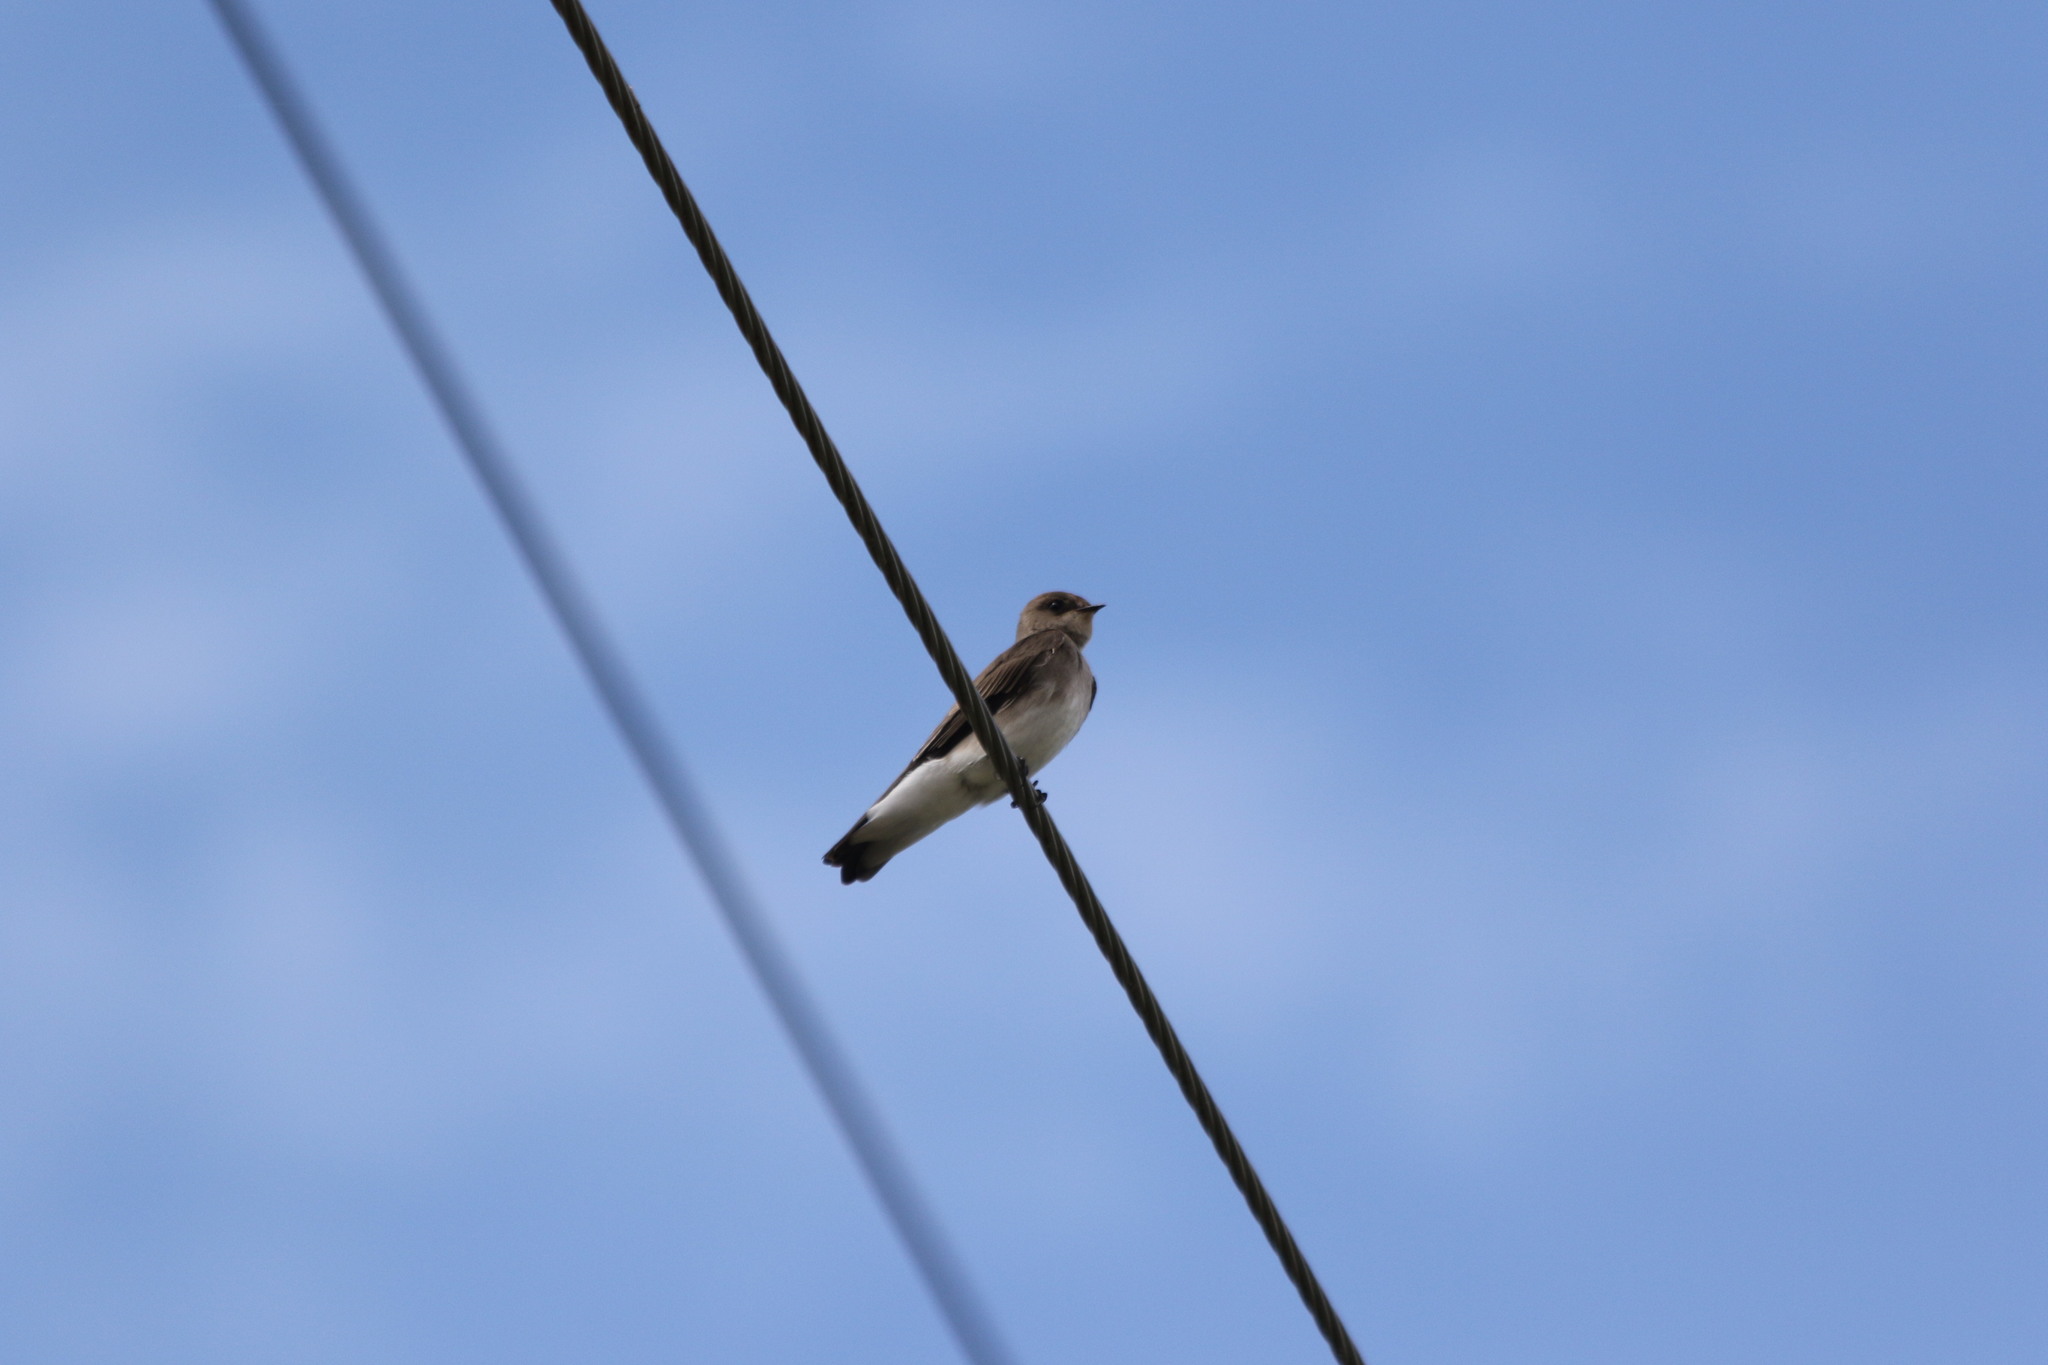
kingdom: Animalia
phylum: Chordata
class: Aves
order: Passeriformes
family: Hirundinidae
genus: Stelgidopteryx
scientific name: Stelgidopteryx serripennis
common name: Northern rough-winged swallow
